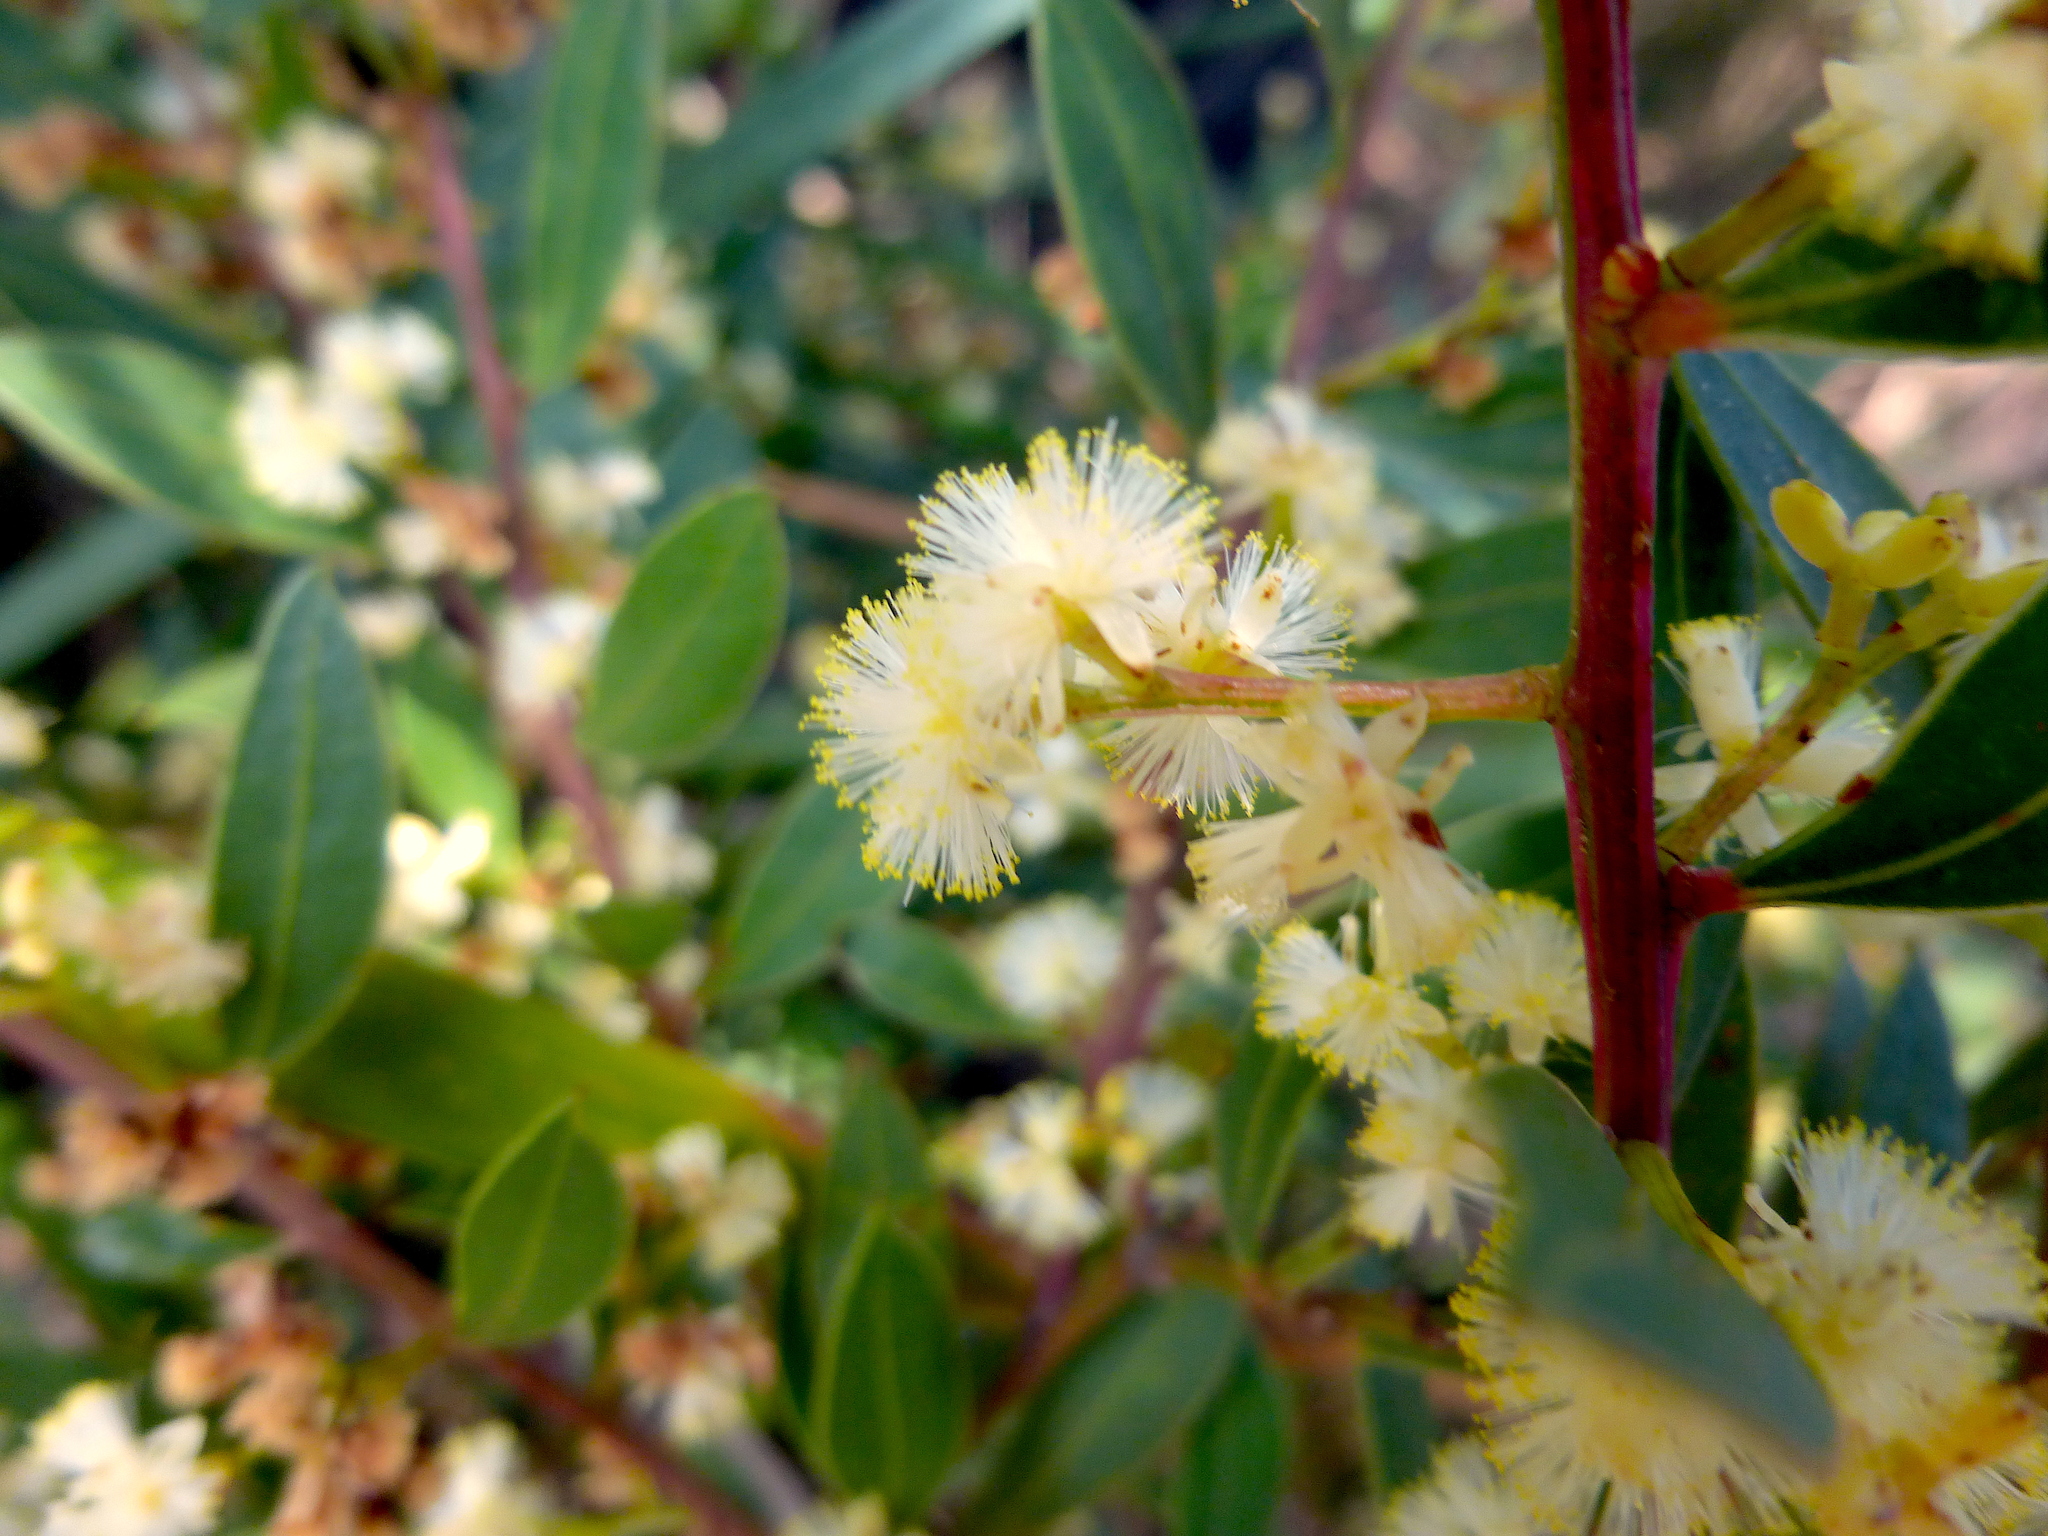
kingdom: Plantae
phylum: Tracheophyta
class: Magnoliopsida
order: Fabales
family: Fabaceae
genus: Acacia
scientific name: Acacia myrtifolia
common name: Myrtle wattle
